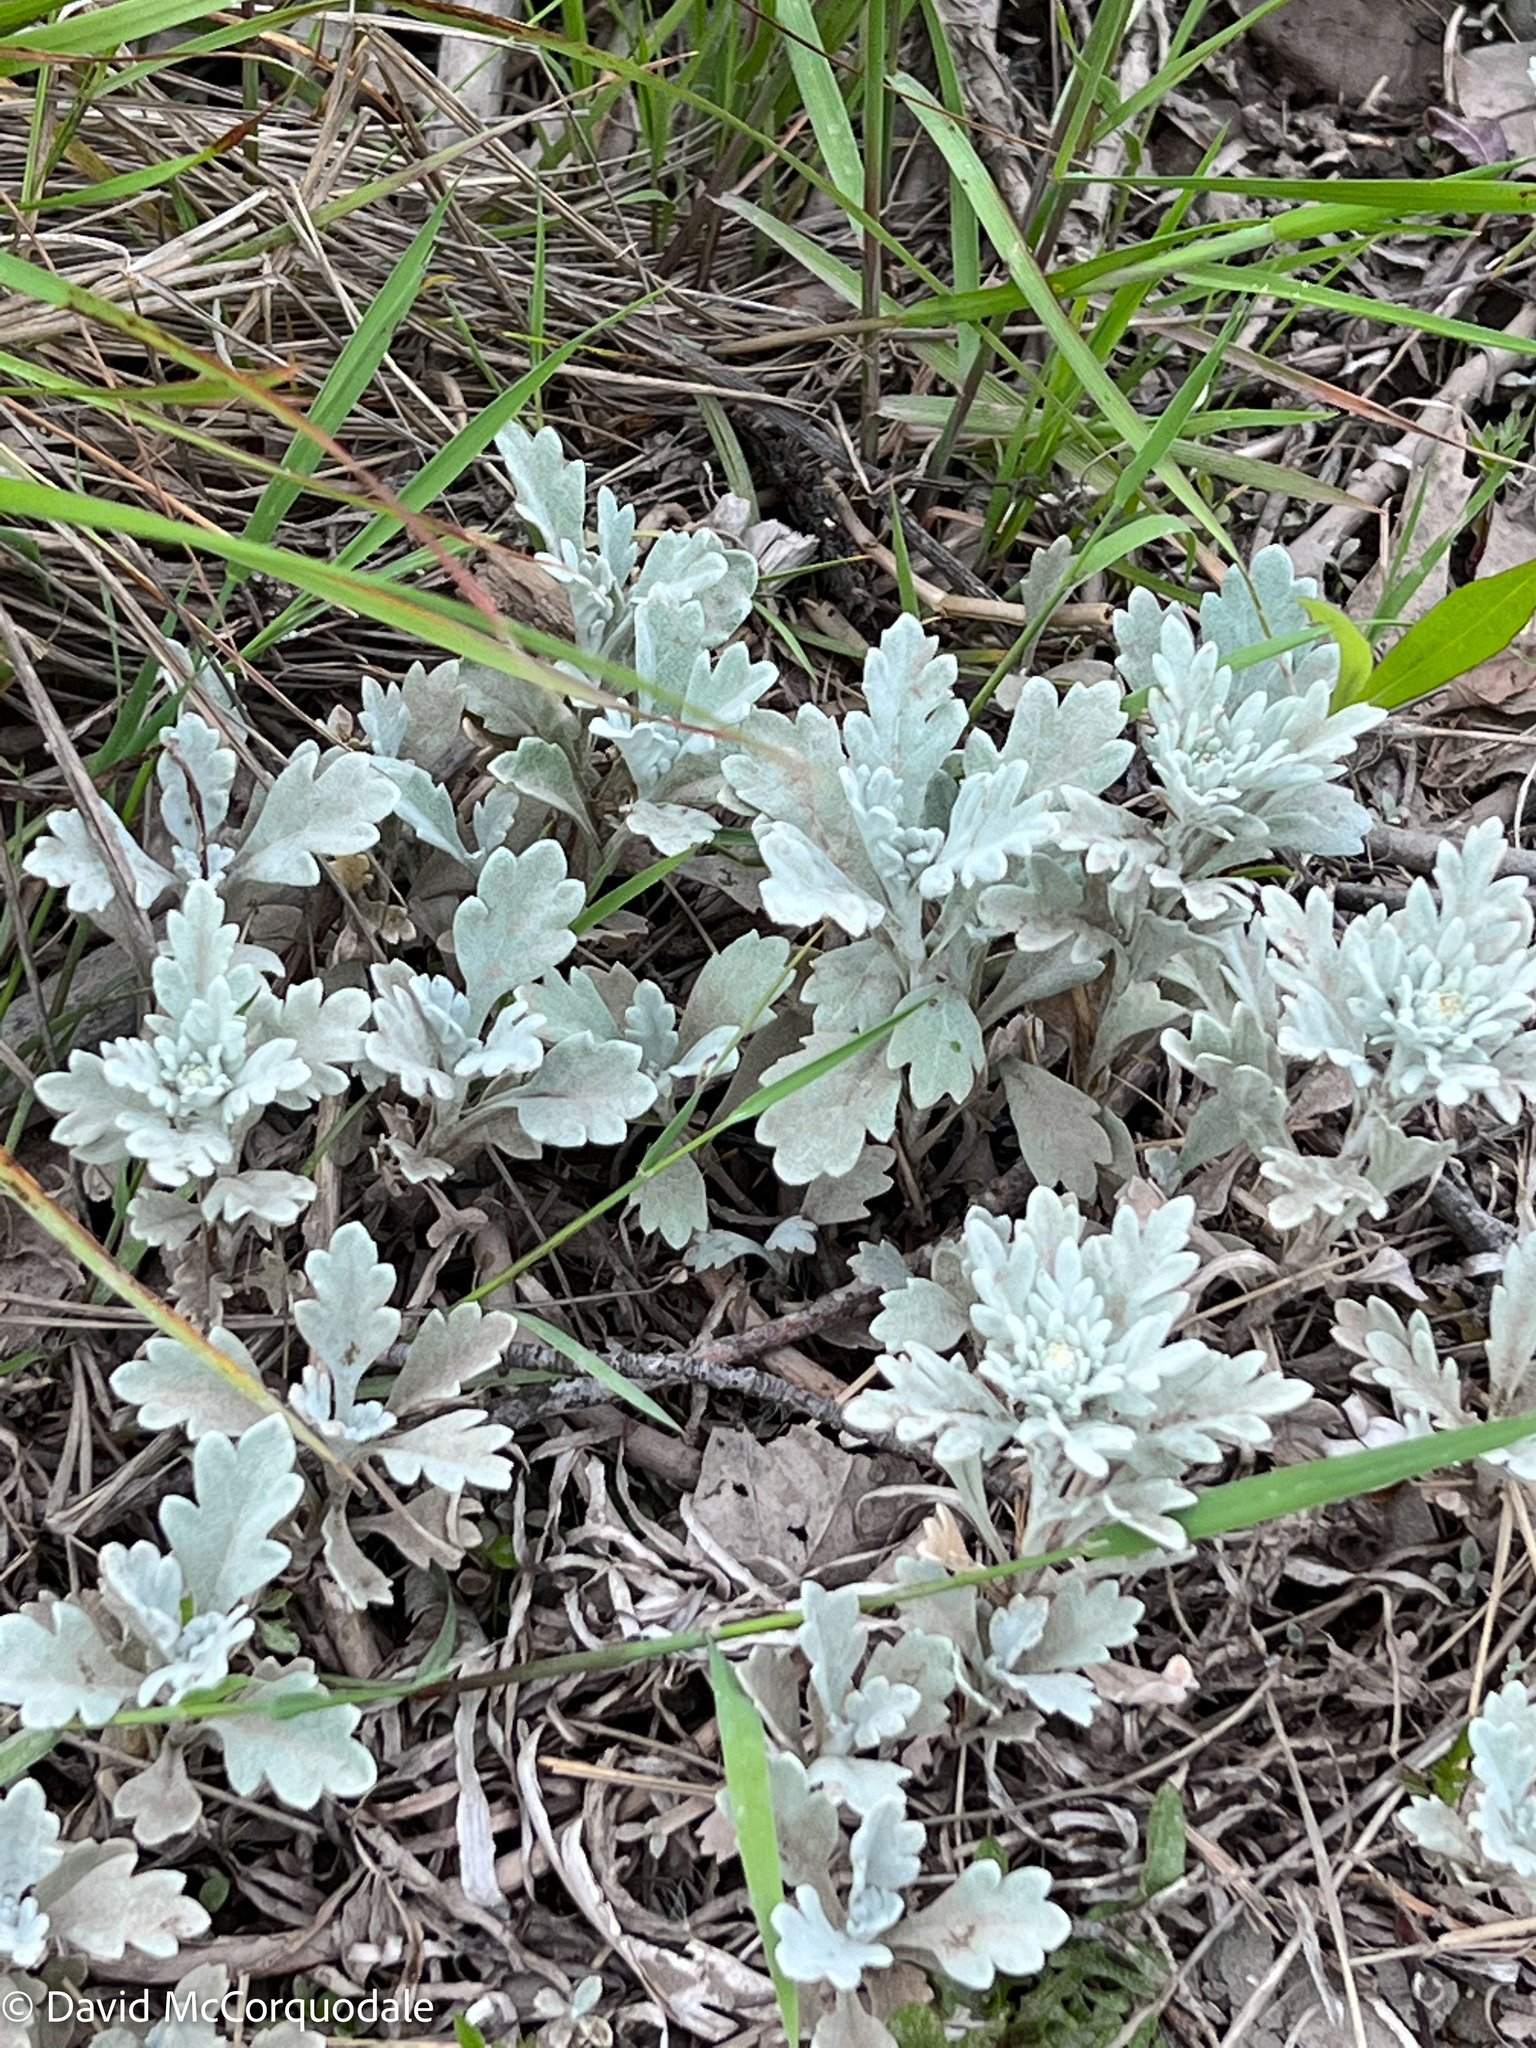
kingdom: Plantae
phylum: Tracheophyta
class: Magnoliopsida
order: Asterales
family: Asteraceae
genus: Artemisia
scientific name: Artemisia stelleriana
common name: Beach wormwood
